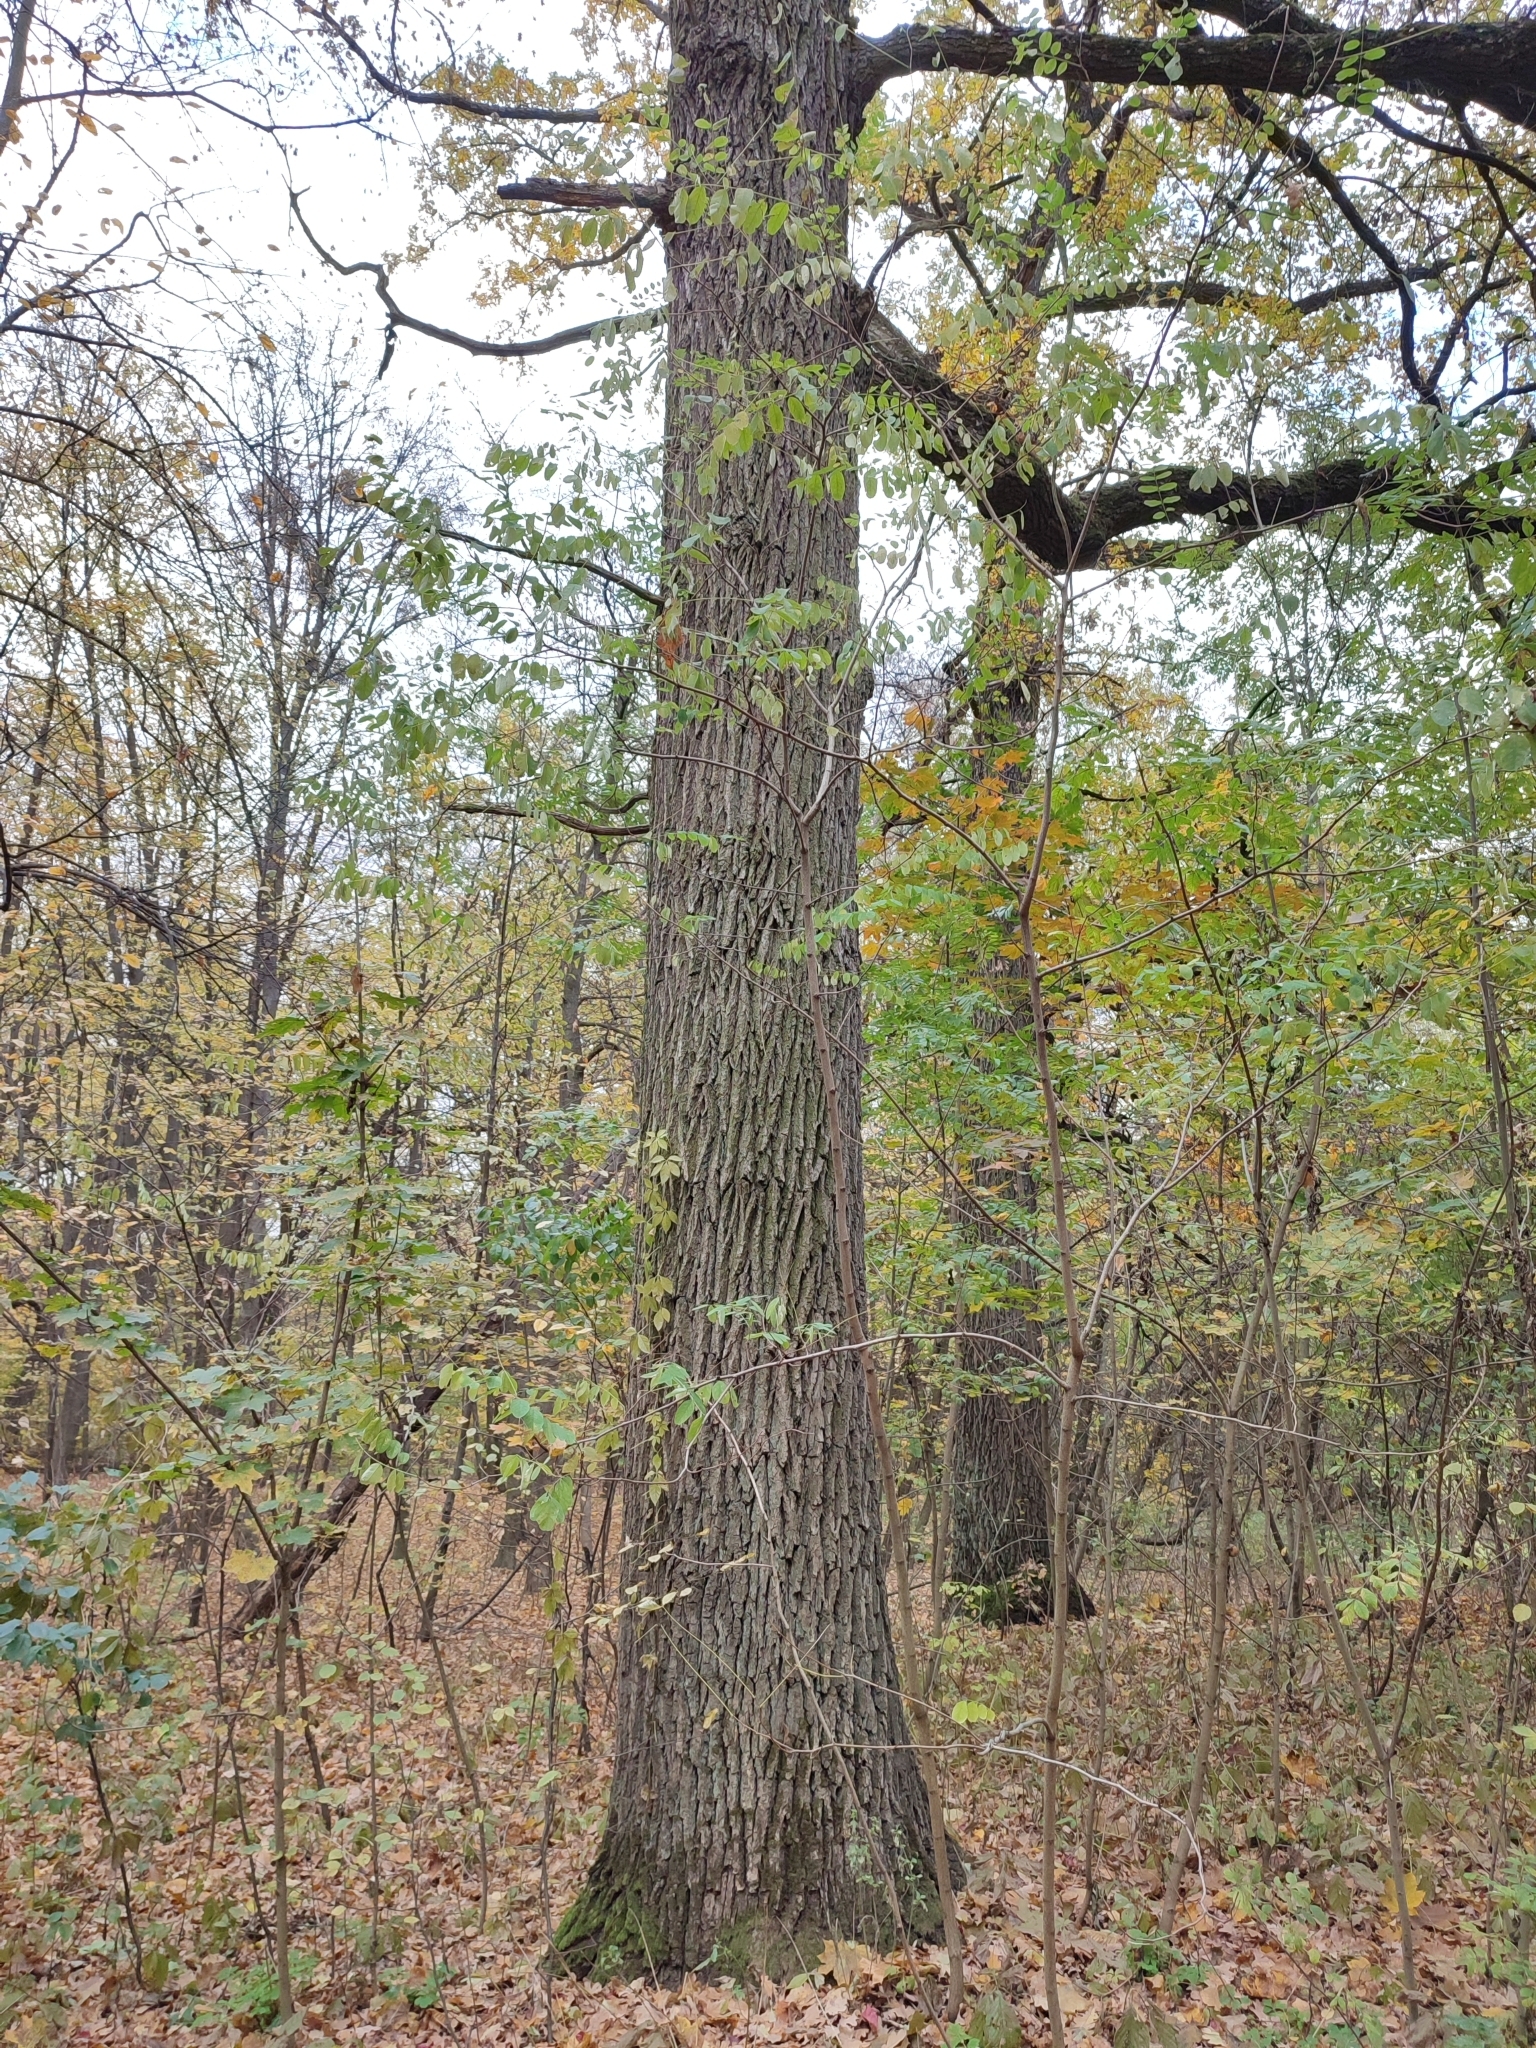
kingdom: Plantae
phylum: Tracheophyta
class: Magnoliopsida
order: Fagales
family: Fagaceae
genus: Quercus
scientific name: Quercus robur
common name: Pedunculate oak
